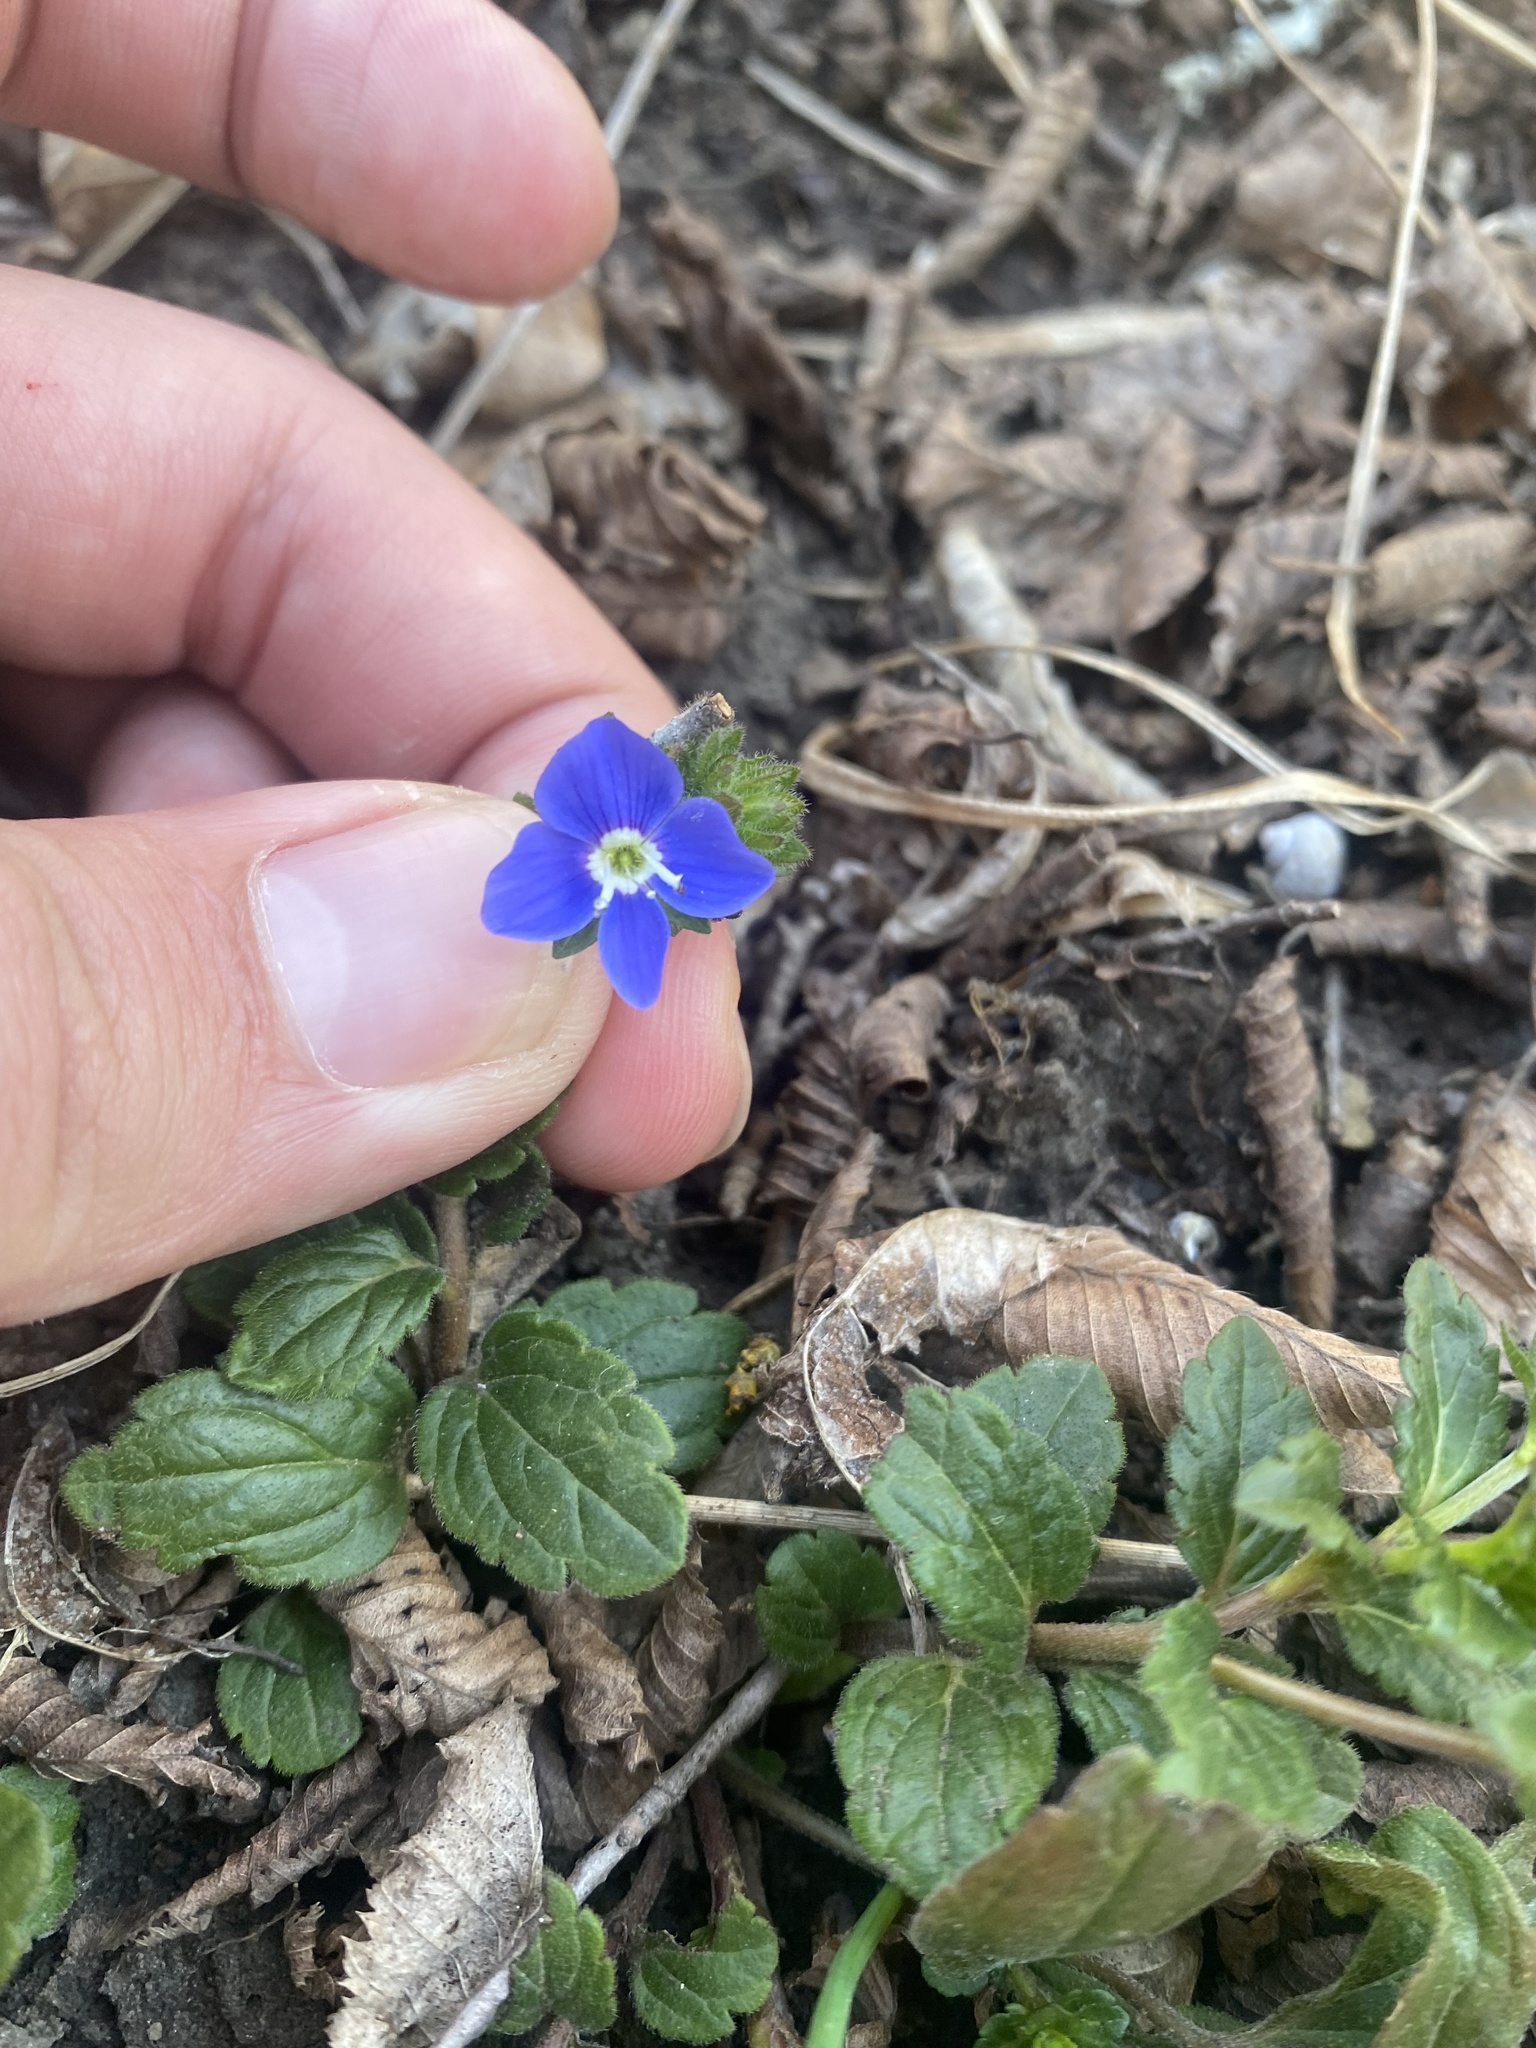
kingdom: Plantae
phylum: Tracheophyta
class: Magnoliopsida
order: Lamiales
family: Plantaginaceae
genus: Veronica
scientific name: Veronica
